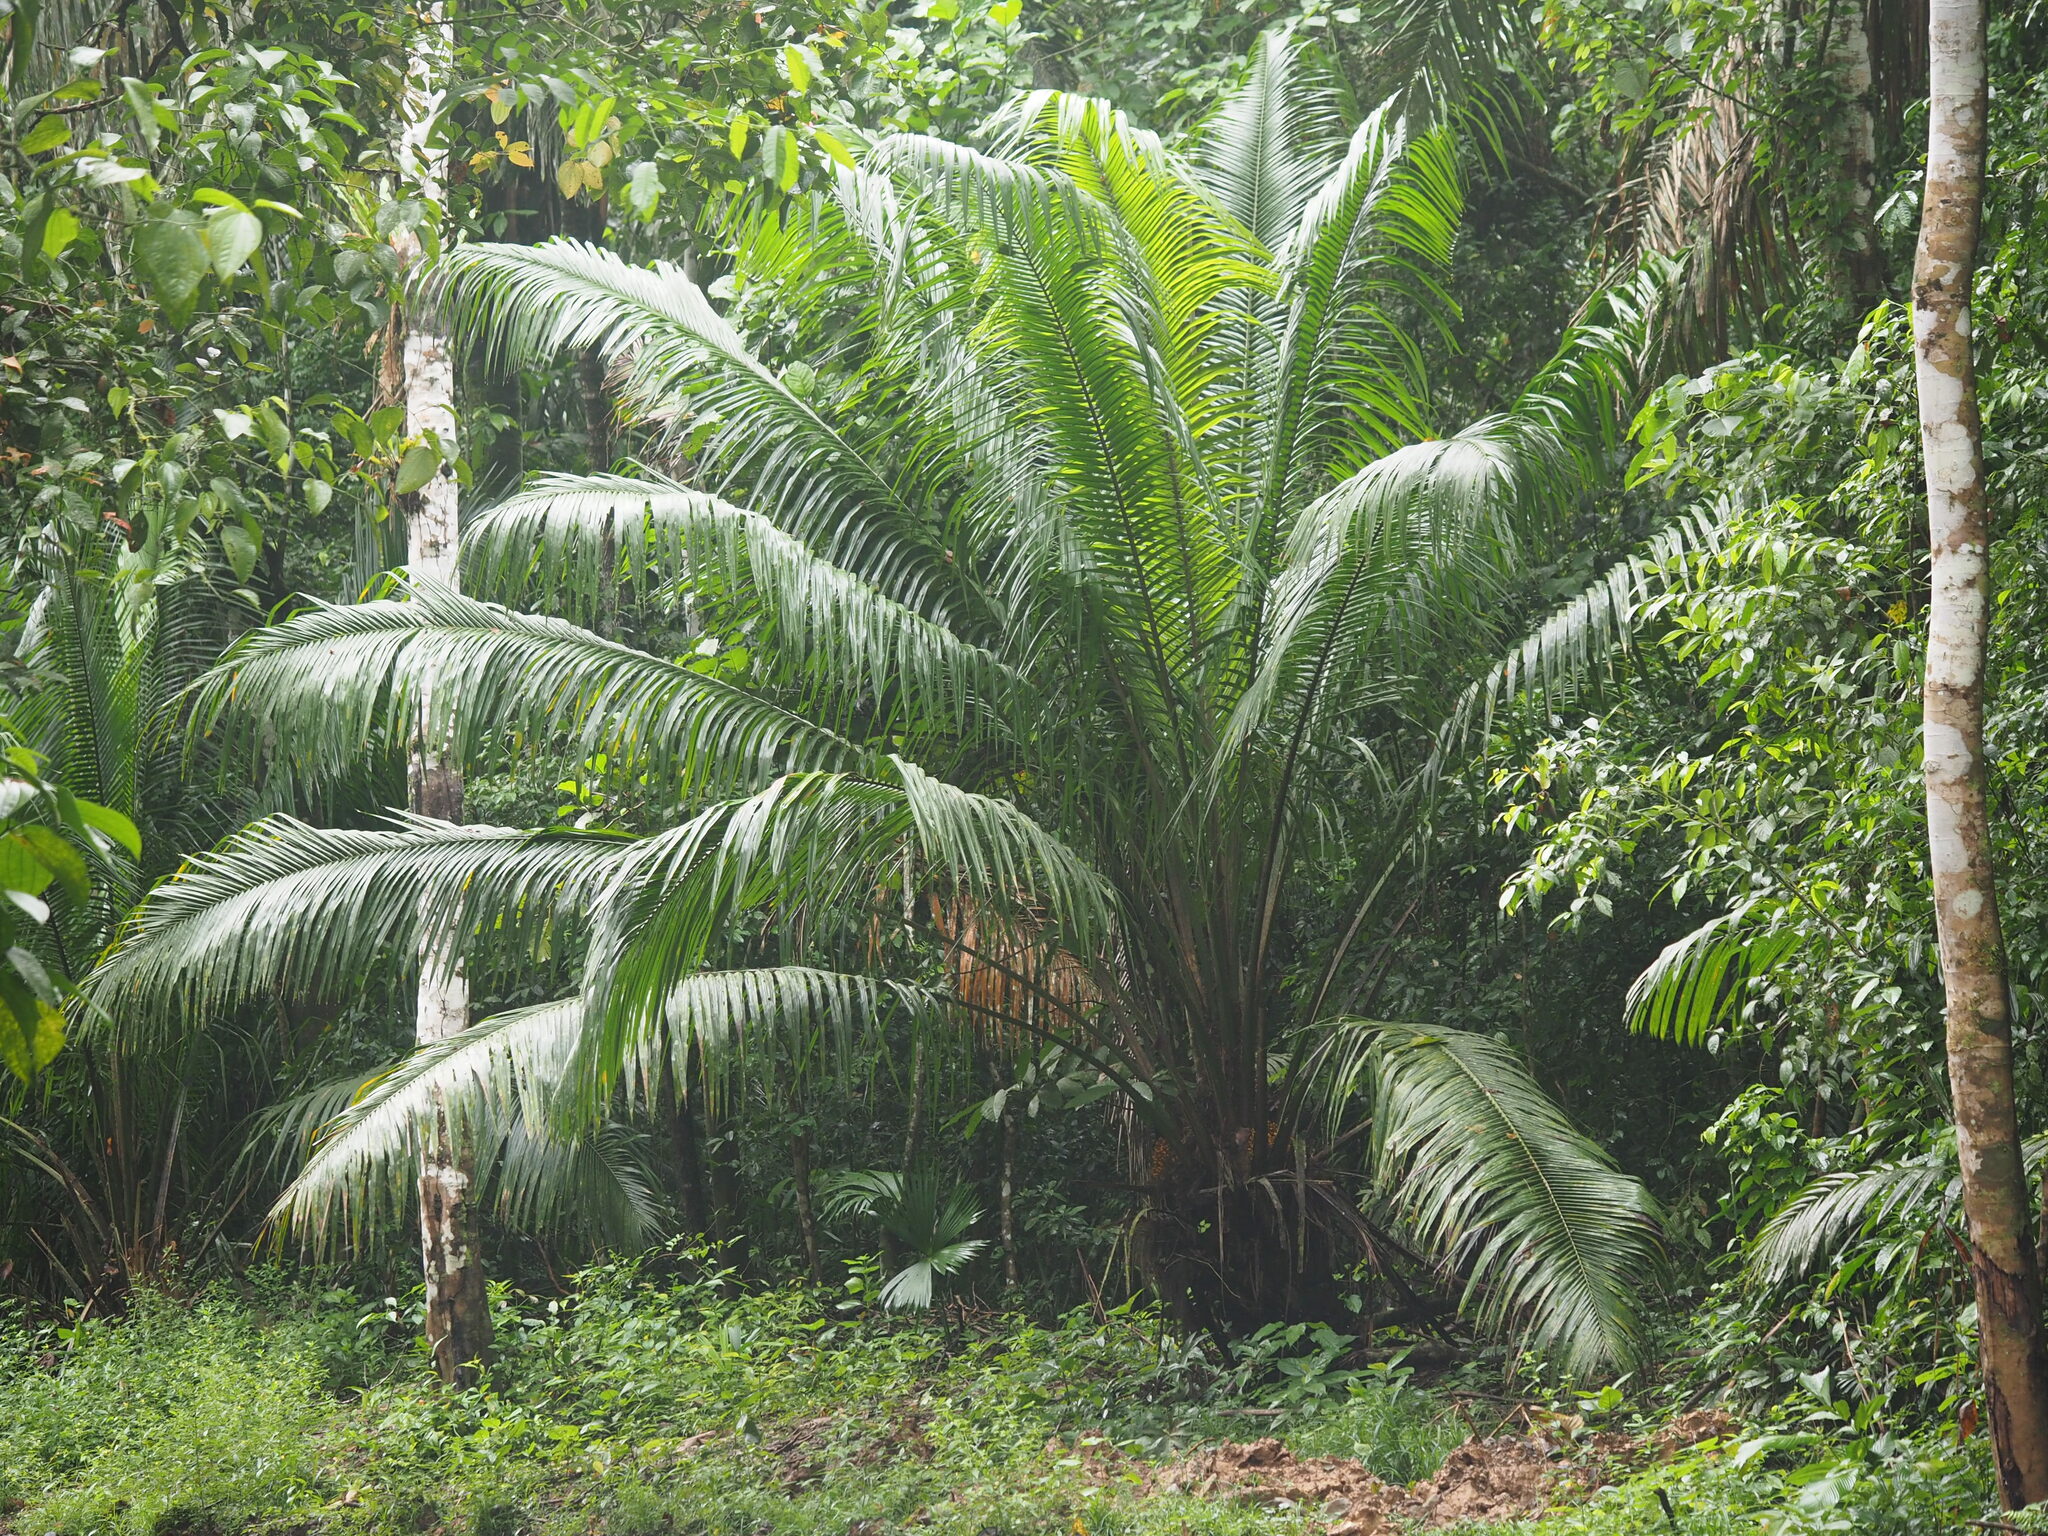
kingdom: Plantae
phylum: Tracheophyta
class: Liliopsida
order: Arecales
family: Arecaceae
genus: Elaeis
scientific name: Elaeis oleifera
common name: American oil palm
